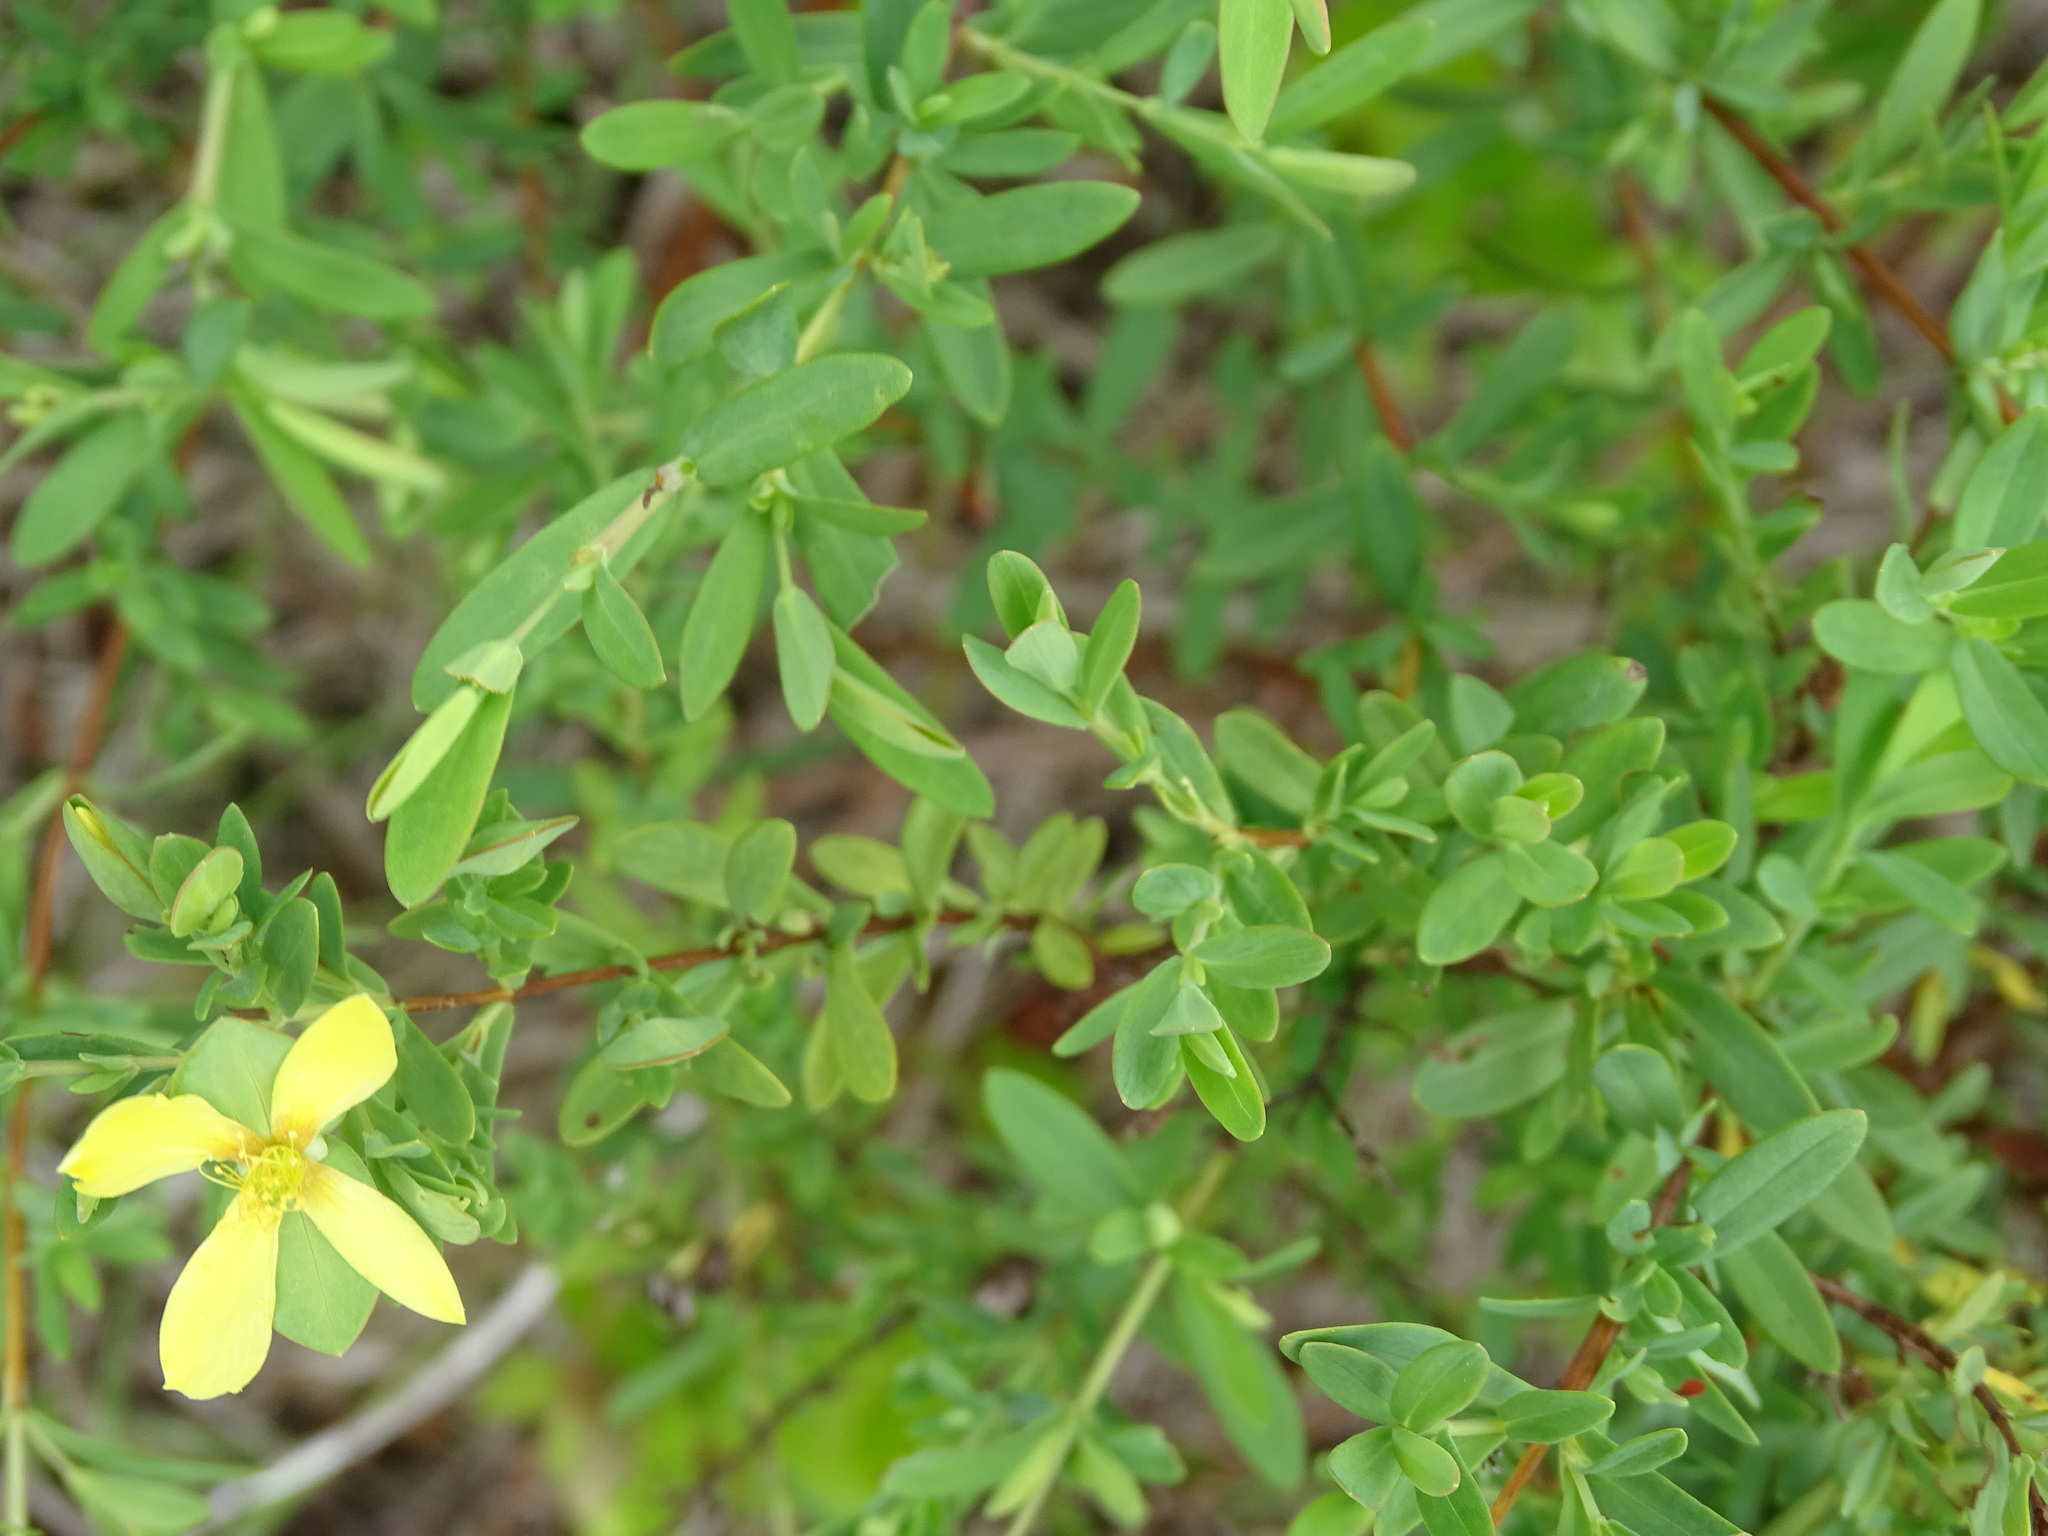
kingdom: Plantae
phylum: Tracheophyta
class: Magnoliopsida
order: Malpighiales
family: Hypericaceae
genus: Hypericum
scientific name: Hypericum hypericoides
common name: St. andrew's cross
